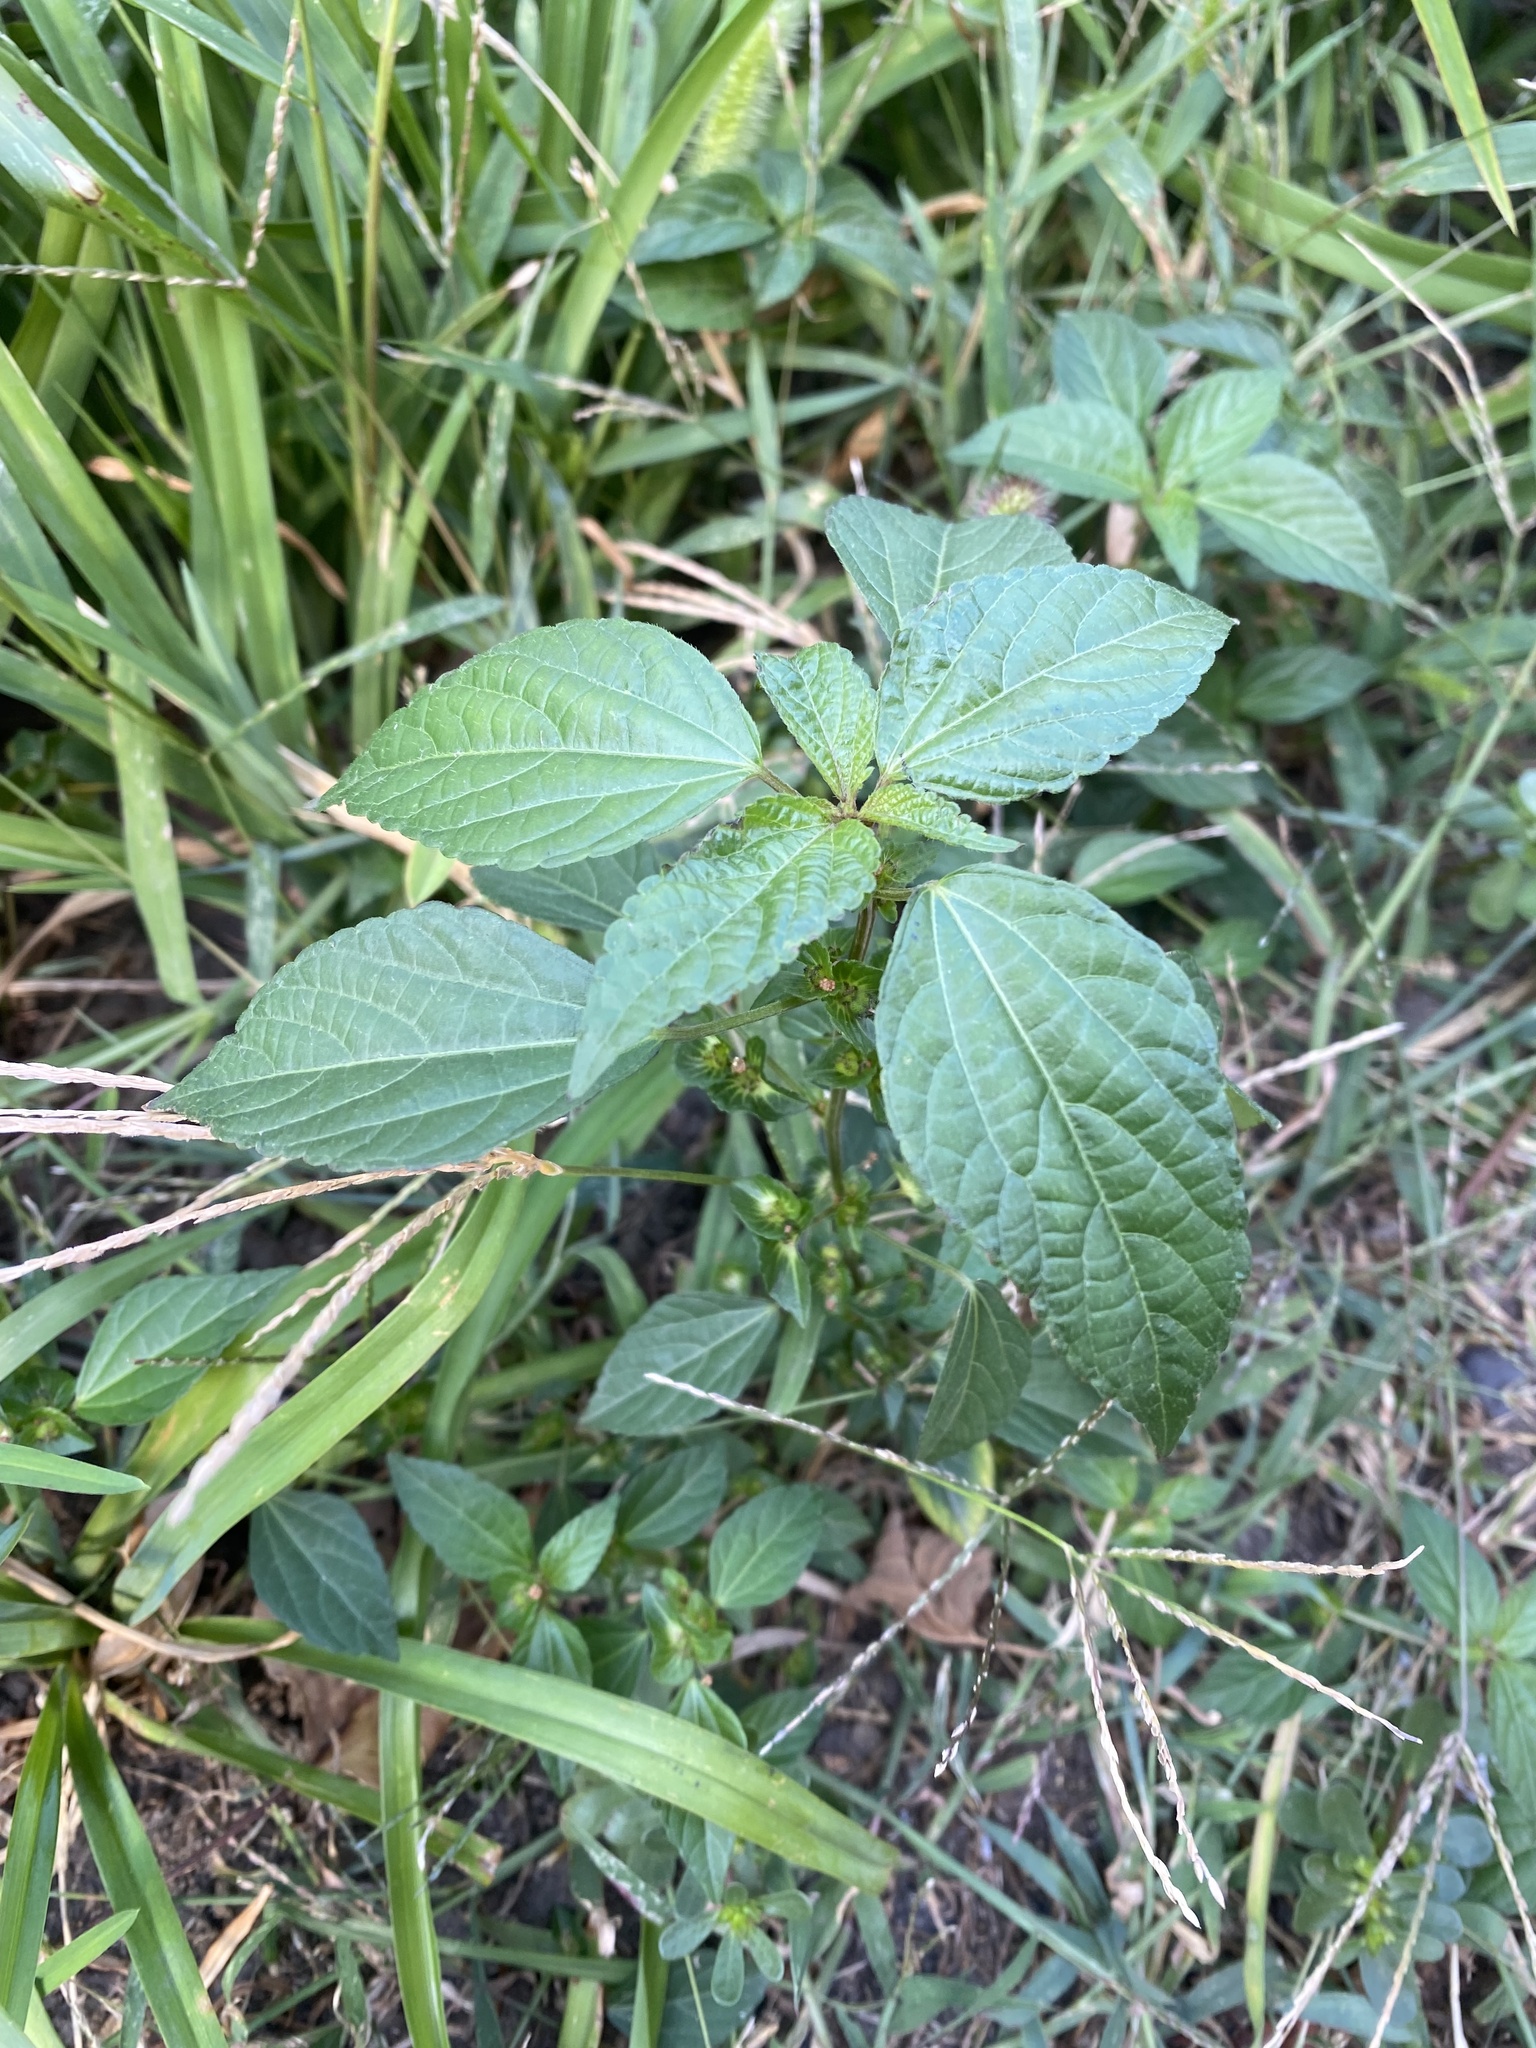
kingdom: Plantae
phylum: Tracheophyta
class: Magnoliopsida
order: Malpighiales
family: Euphorbiaceae
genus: Acalypha
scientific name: Acalypha australis
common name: Asian copperleaf
